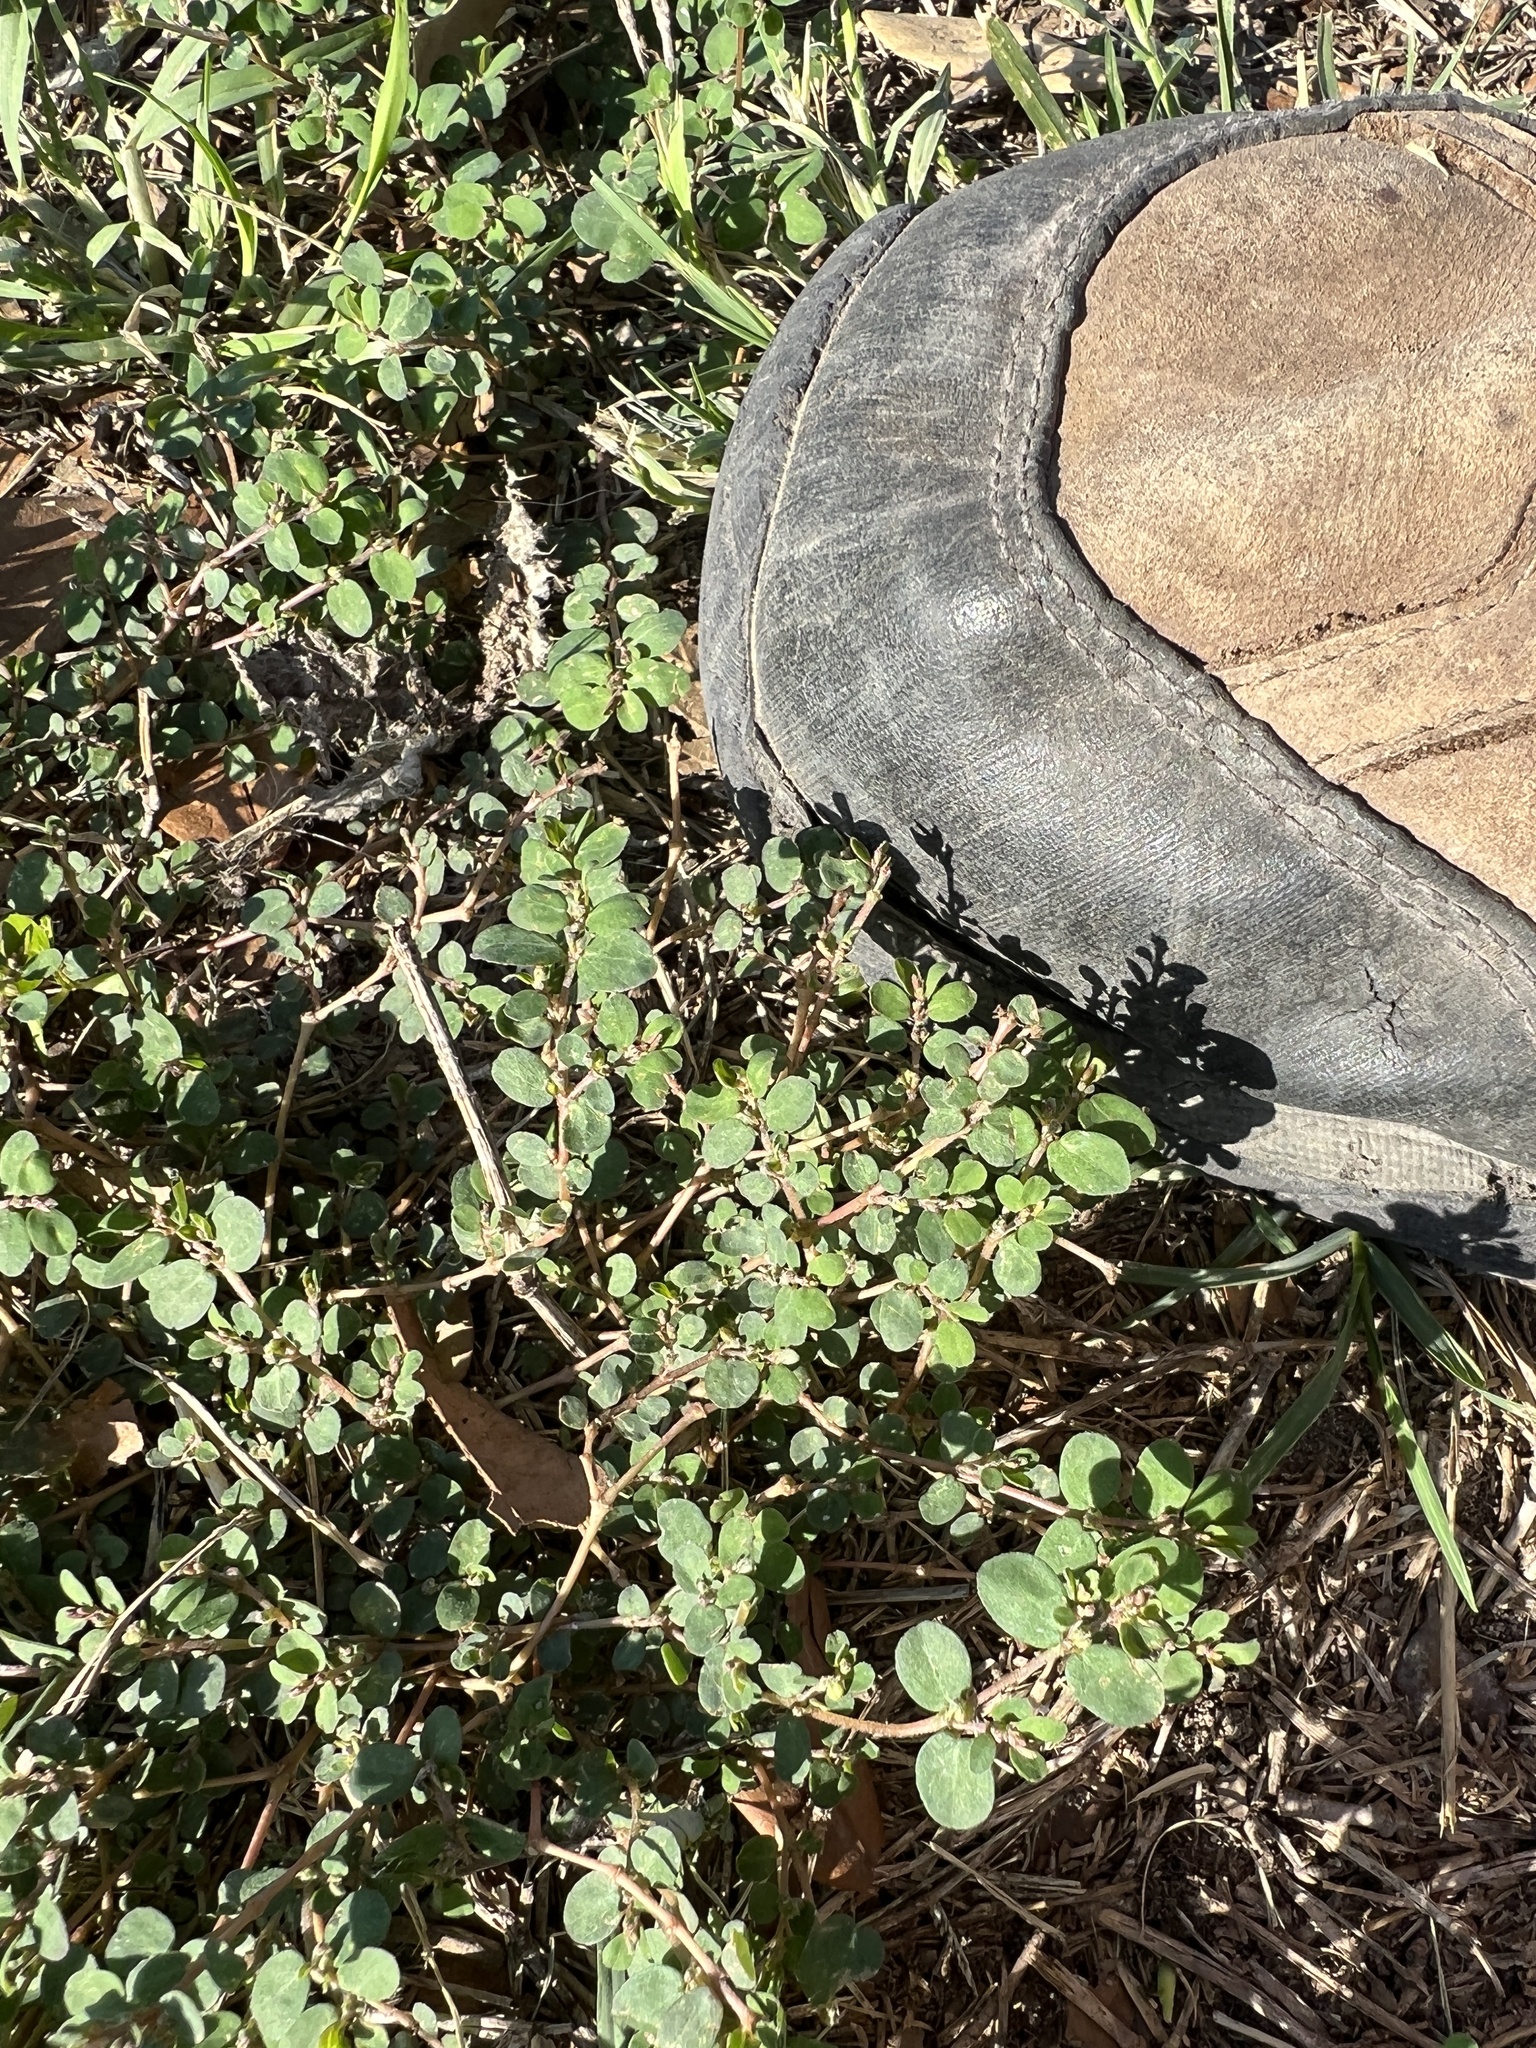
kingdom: Plantae
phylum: Tracheophyta
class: Magnoliopsida
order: Malpighiales
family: Euphorbiaceae
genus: Euphorbia
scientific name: Euphorbia prostrata
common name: Prostrate sandmat
